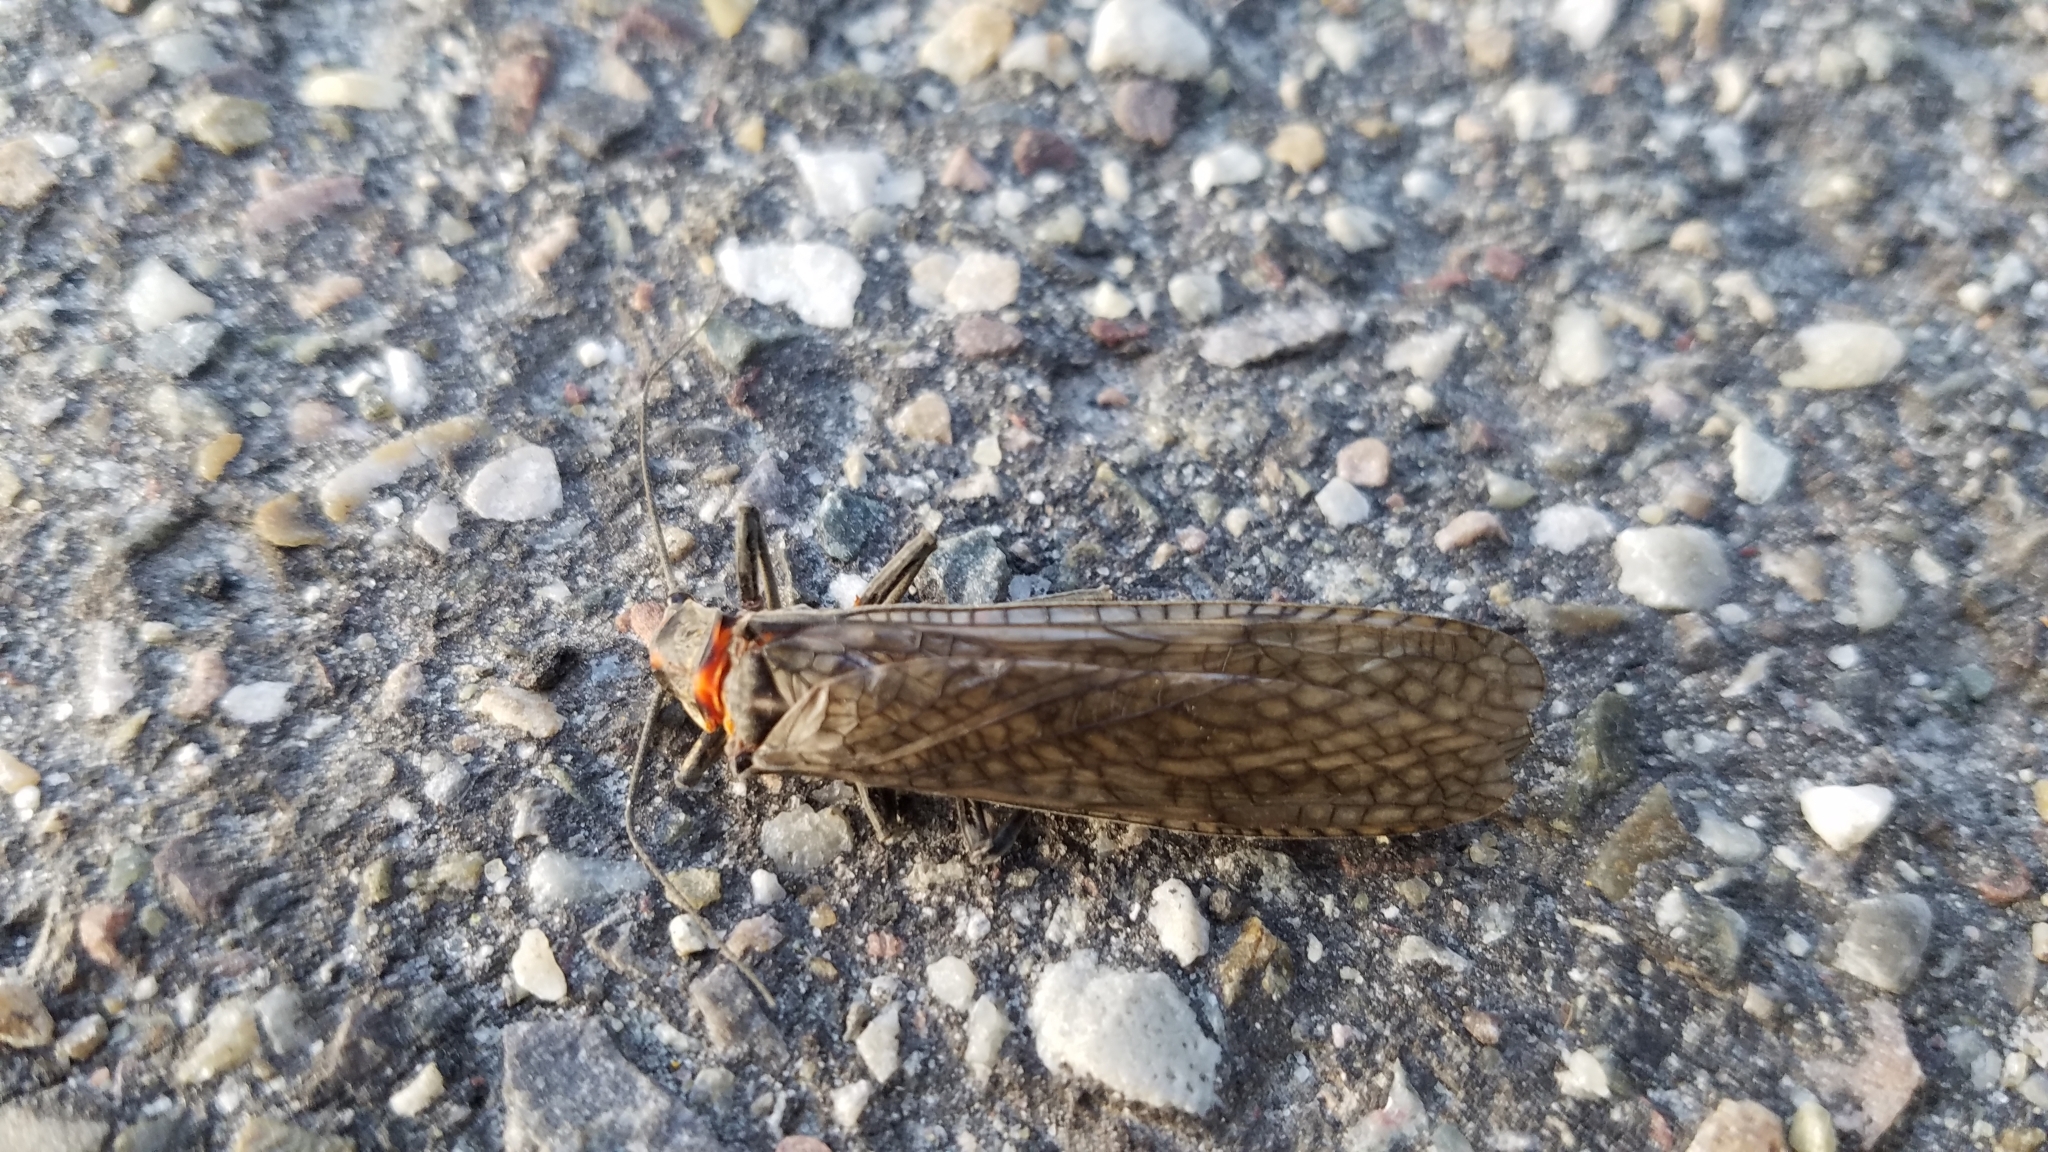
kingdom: Animalia
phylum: Arthropoda
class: Insecta
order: Plecoptera
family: Pteronarcyidae
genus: Pteronarcys
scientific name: Pteronarcys californica
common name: Giant salmonfly
